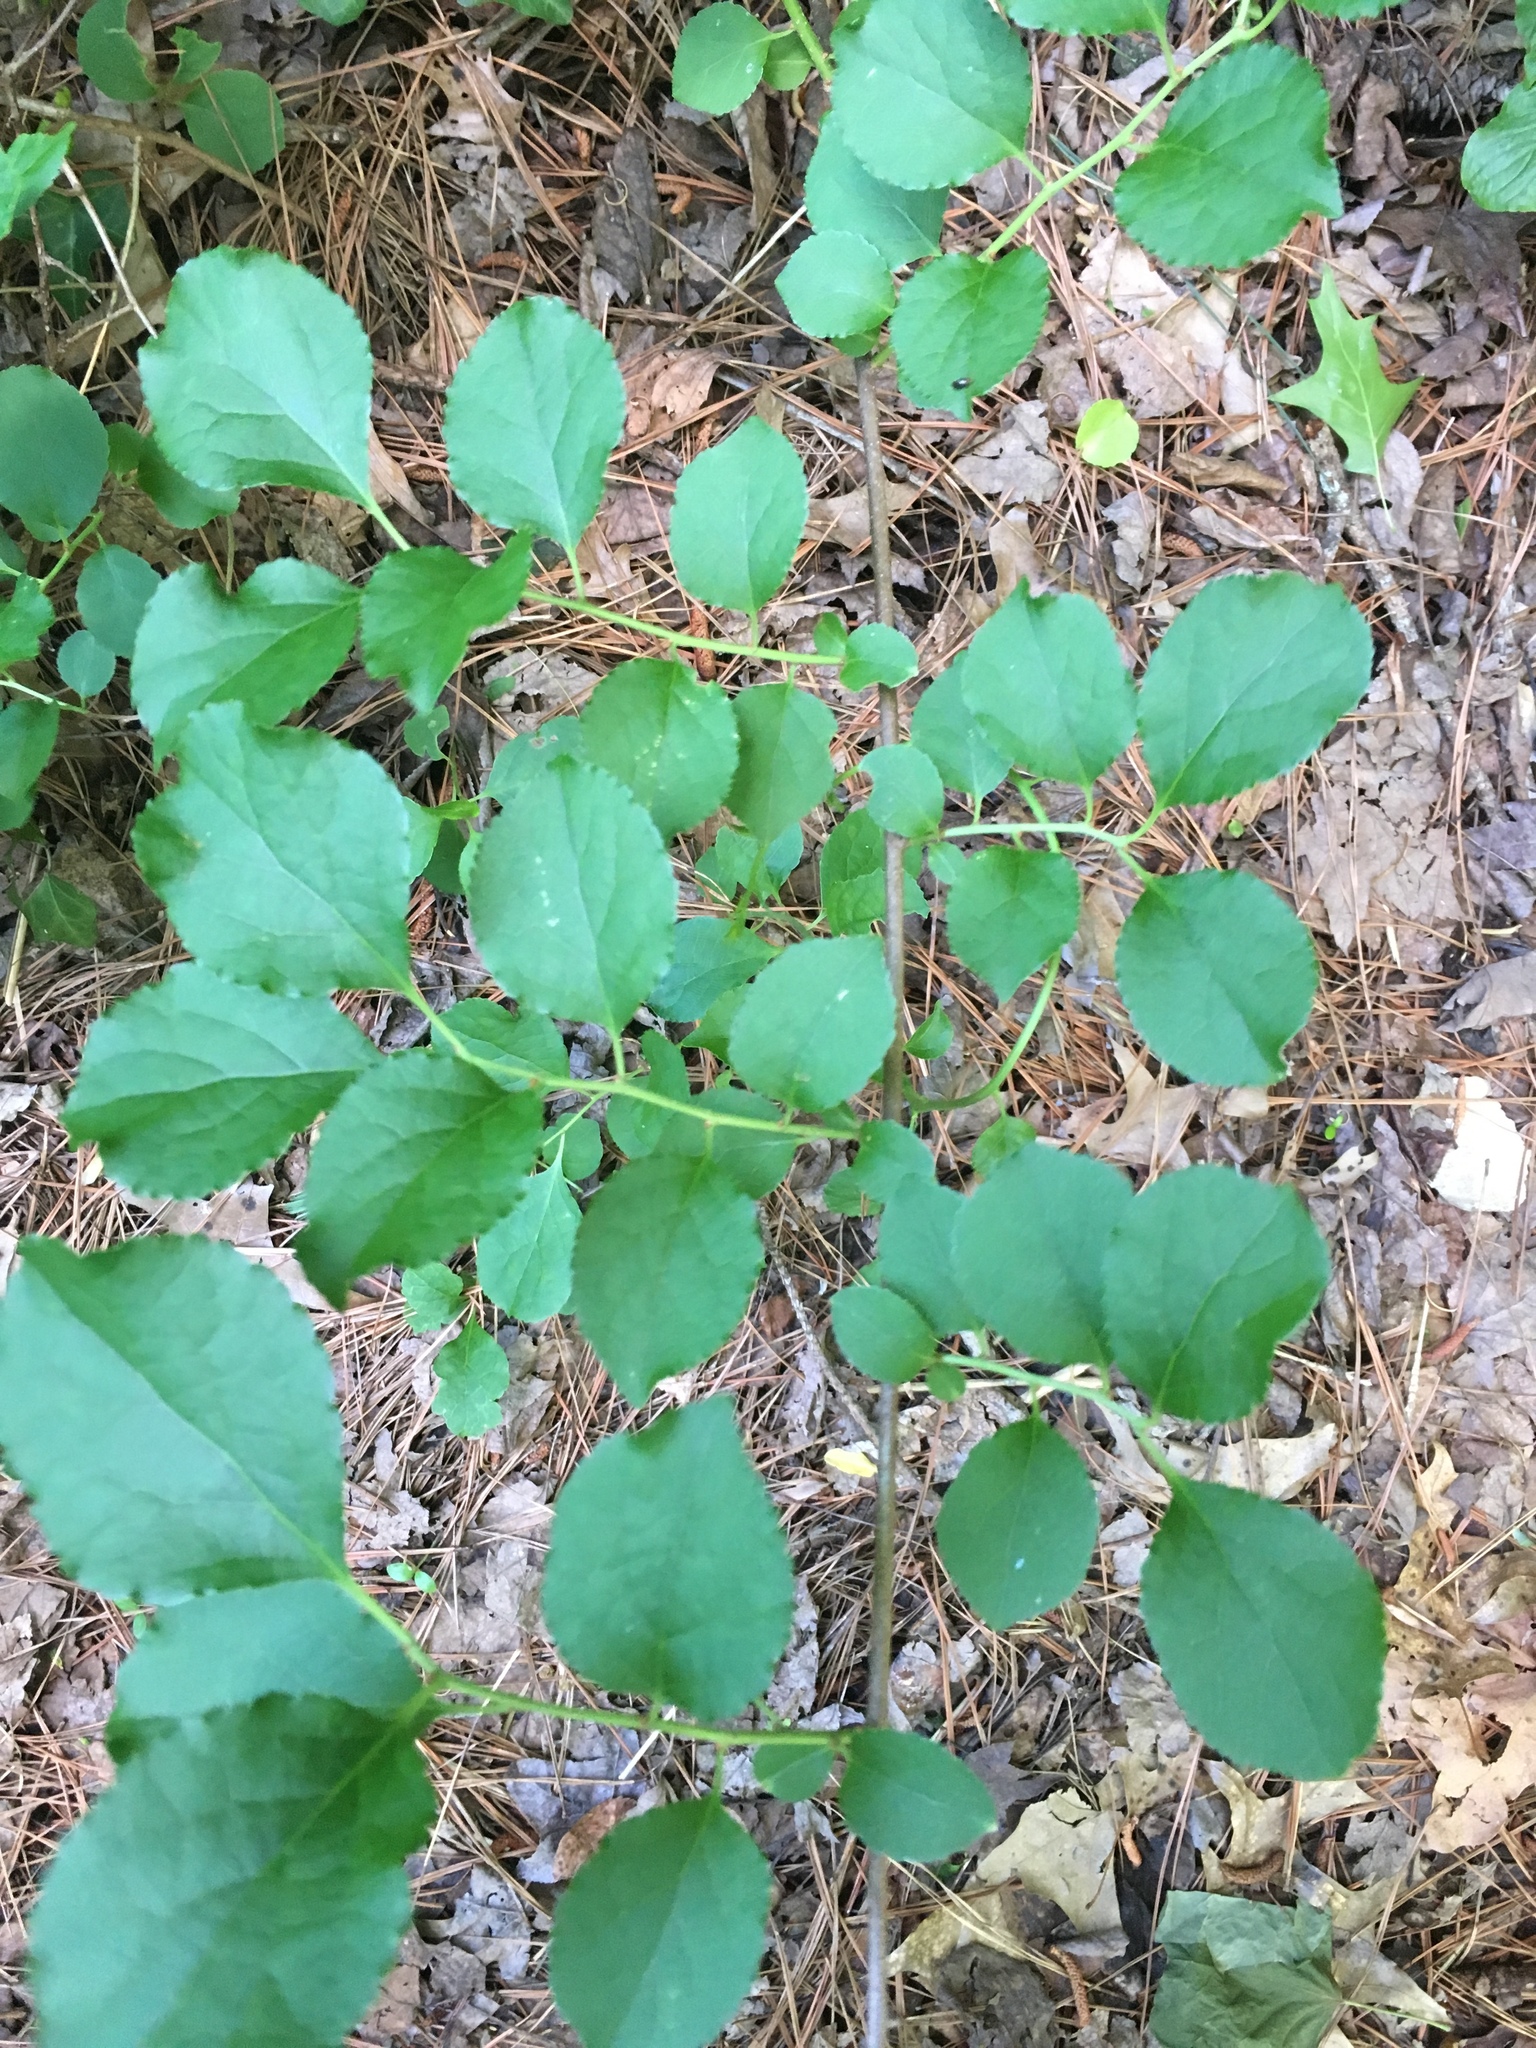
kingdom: Plantae
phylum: Tracheophyta
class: Magnoliopsida
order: Celastrales
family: Celastraceae
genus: Celastrus
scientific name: Celastrus orbiculatus
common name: Oriental bittersweet
